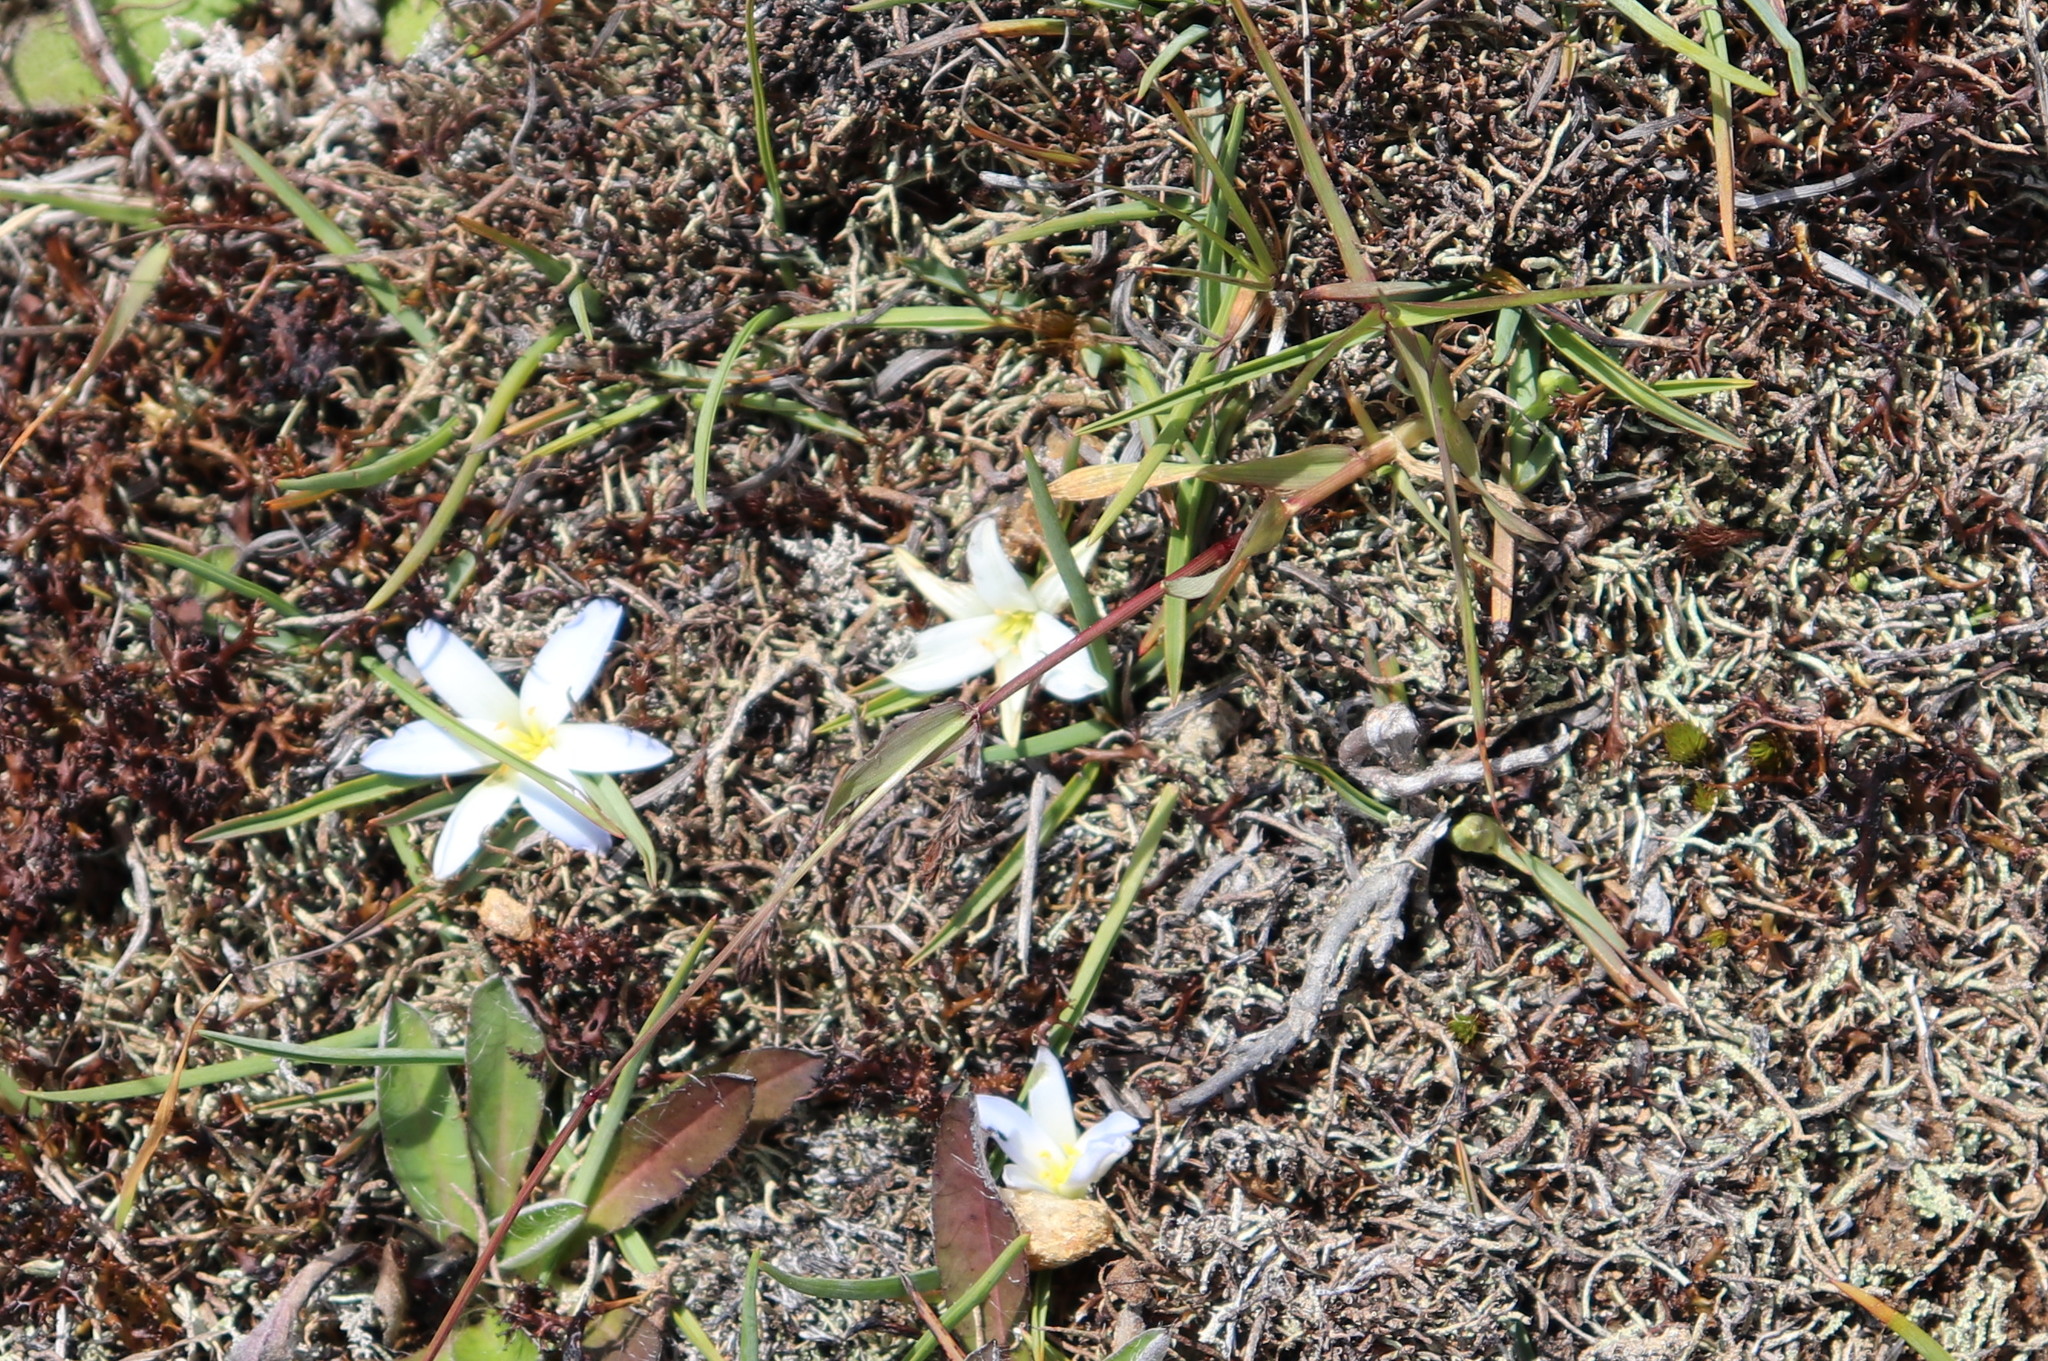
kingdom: Plantae
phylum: Tracheophyta
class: Liliopsida
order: Asparagales
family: Asphodelaceae
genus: Herpolirion
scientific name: Herpolirion novae-zelandiae
